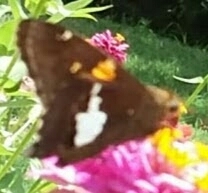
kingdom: Animalia
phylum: Arthropoda
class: Insecta
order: Lepidoptera
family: Hesperiidae
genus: Epargyreus
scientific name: Epargyreus clarus
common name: Silver-spotted skipper
